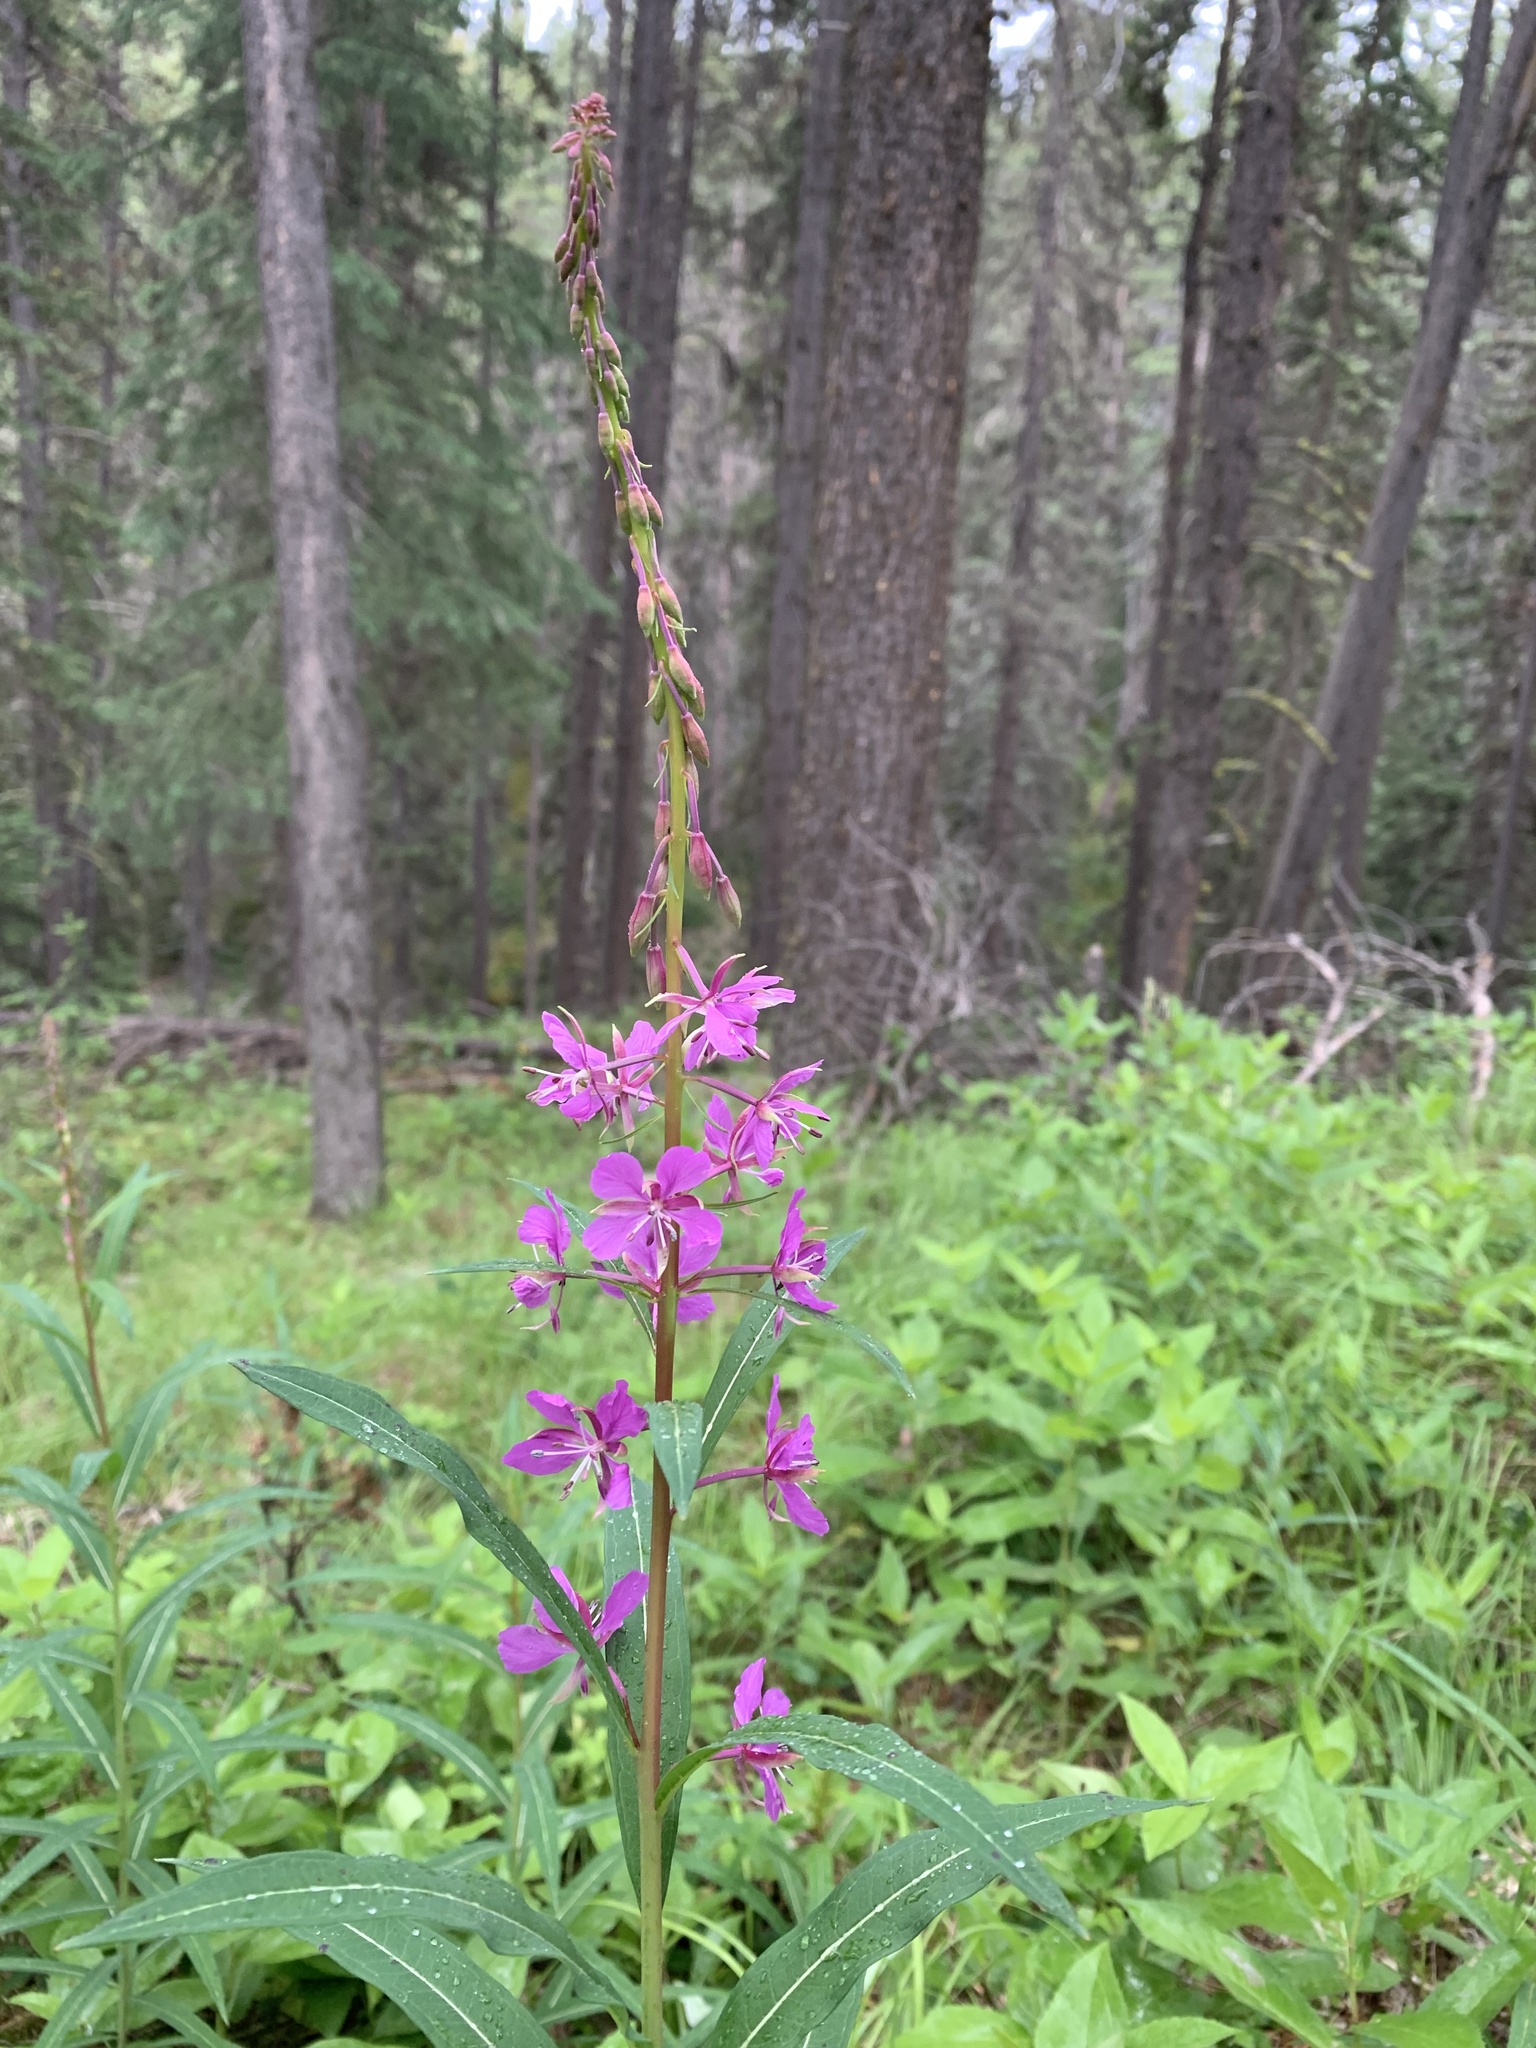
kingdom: Plantae
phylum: Tracheophyta
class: Magnoliopsida
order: Myrtales
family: Onagraceae
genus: Chamaenerion
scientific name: Chamaenerion angustifolium
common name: Fireweed
